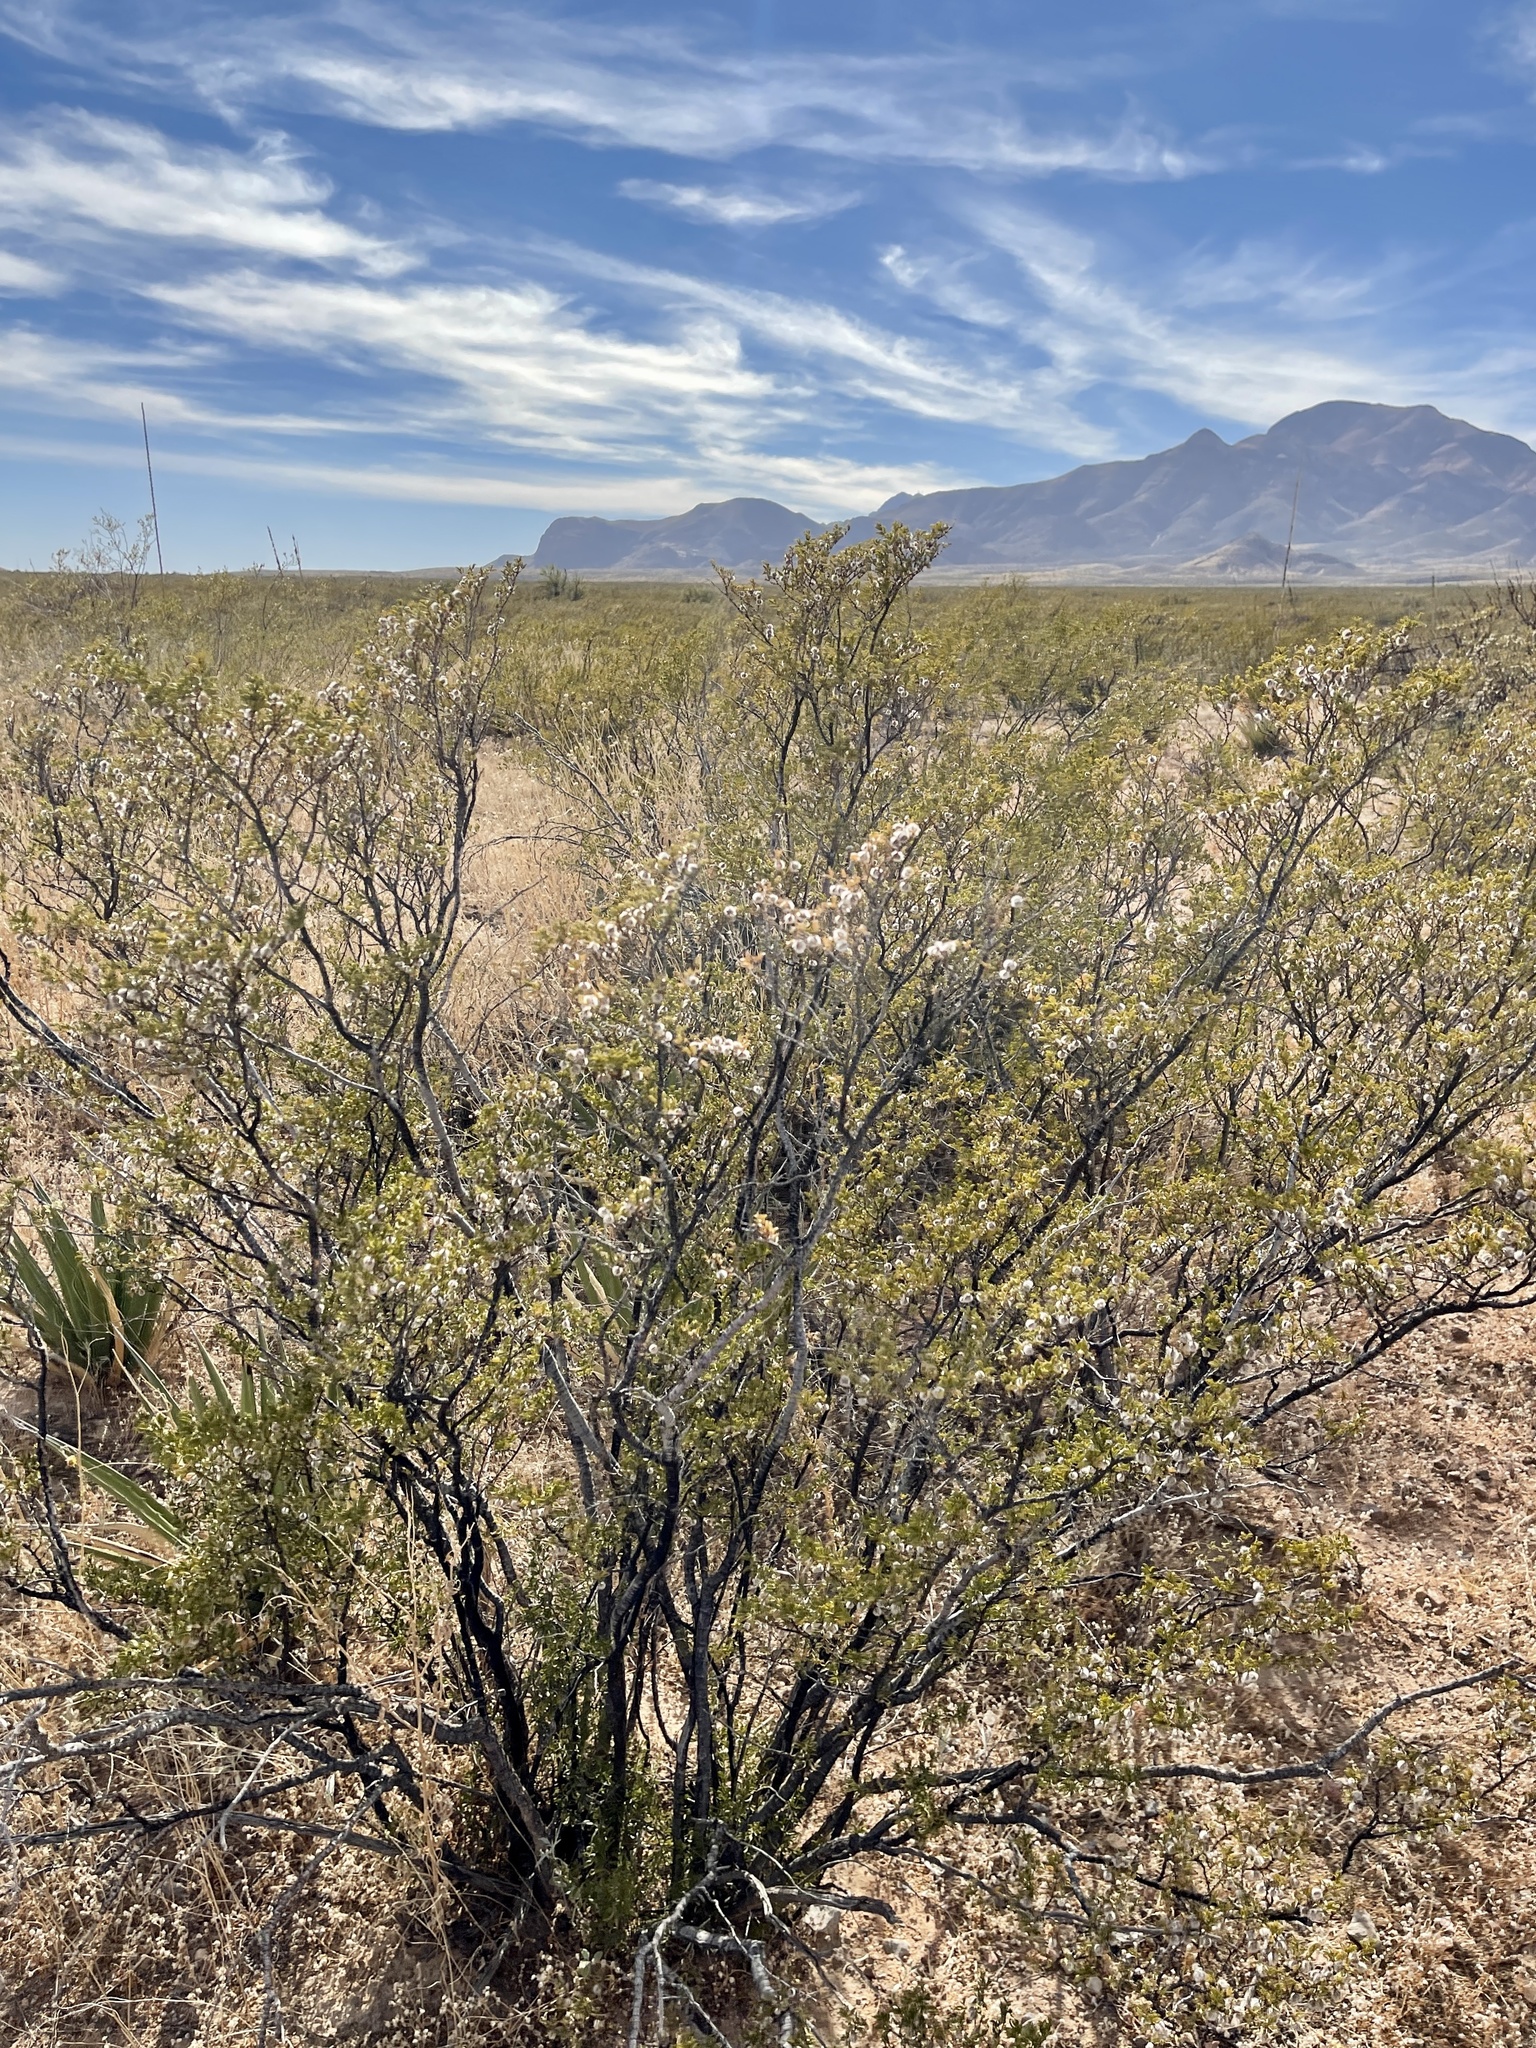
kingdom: Plantae
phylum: Tracheophyta
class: Magnoliopsida
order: Zygophyllales
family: Zygophyllaceae
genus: Larrea
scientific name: Larrea tridentata
